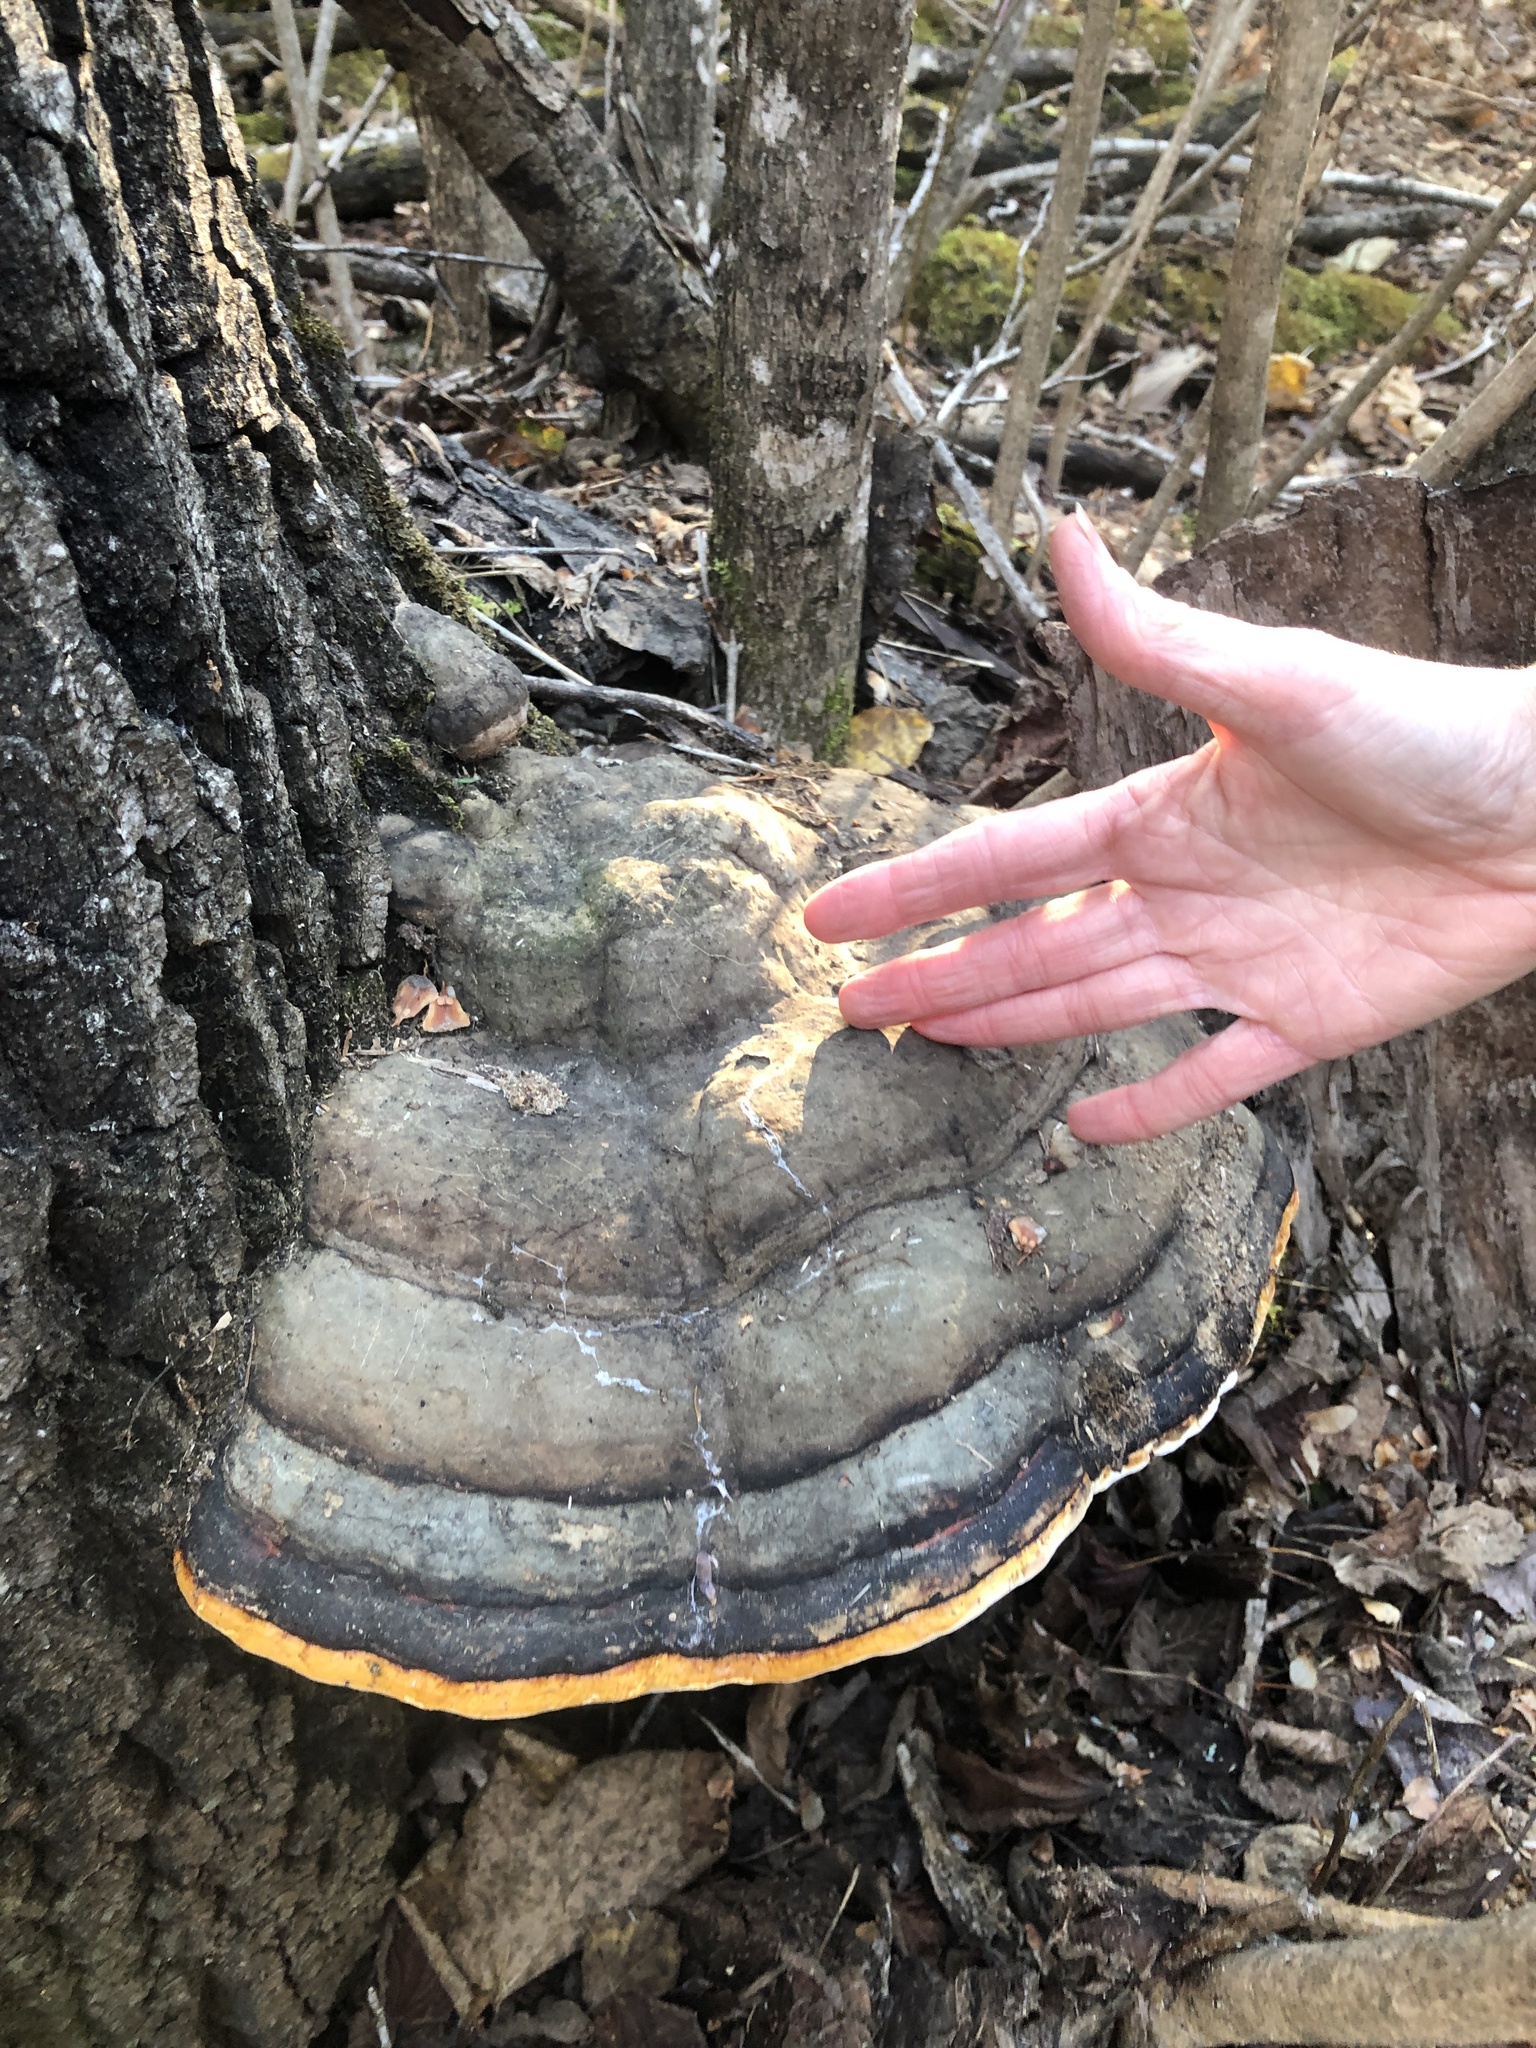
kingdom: Fungi
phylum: Basidiomycota
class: Agaricomycetes
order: Polyporales
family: Fomitopsidaceae
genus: Fomitopsis
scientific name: Fomitopsis mounceae
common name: Northern red belt
